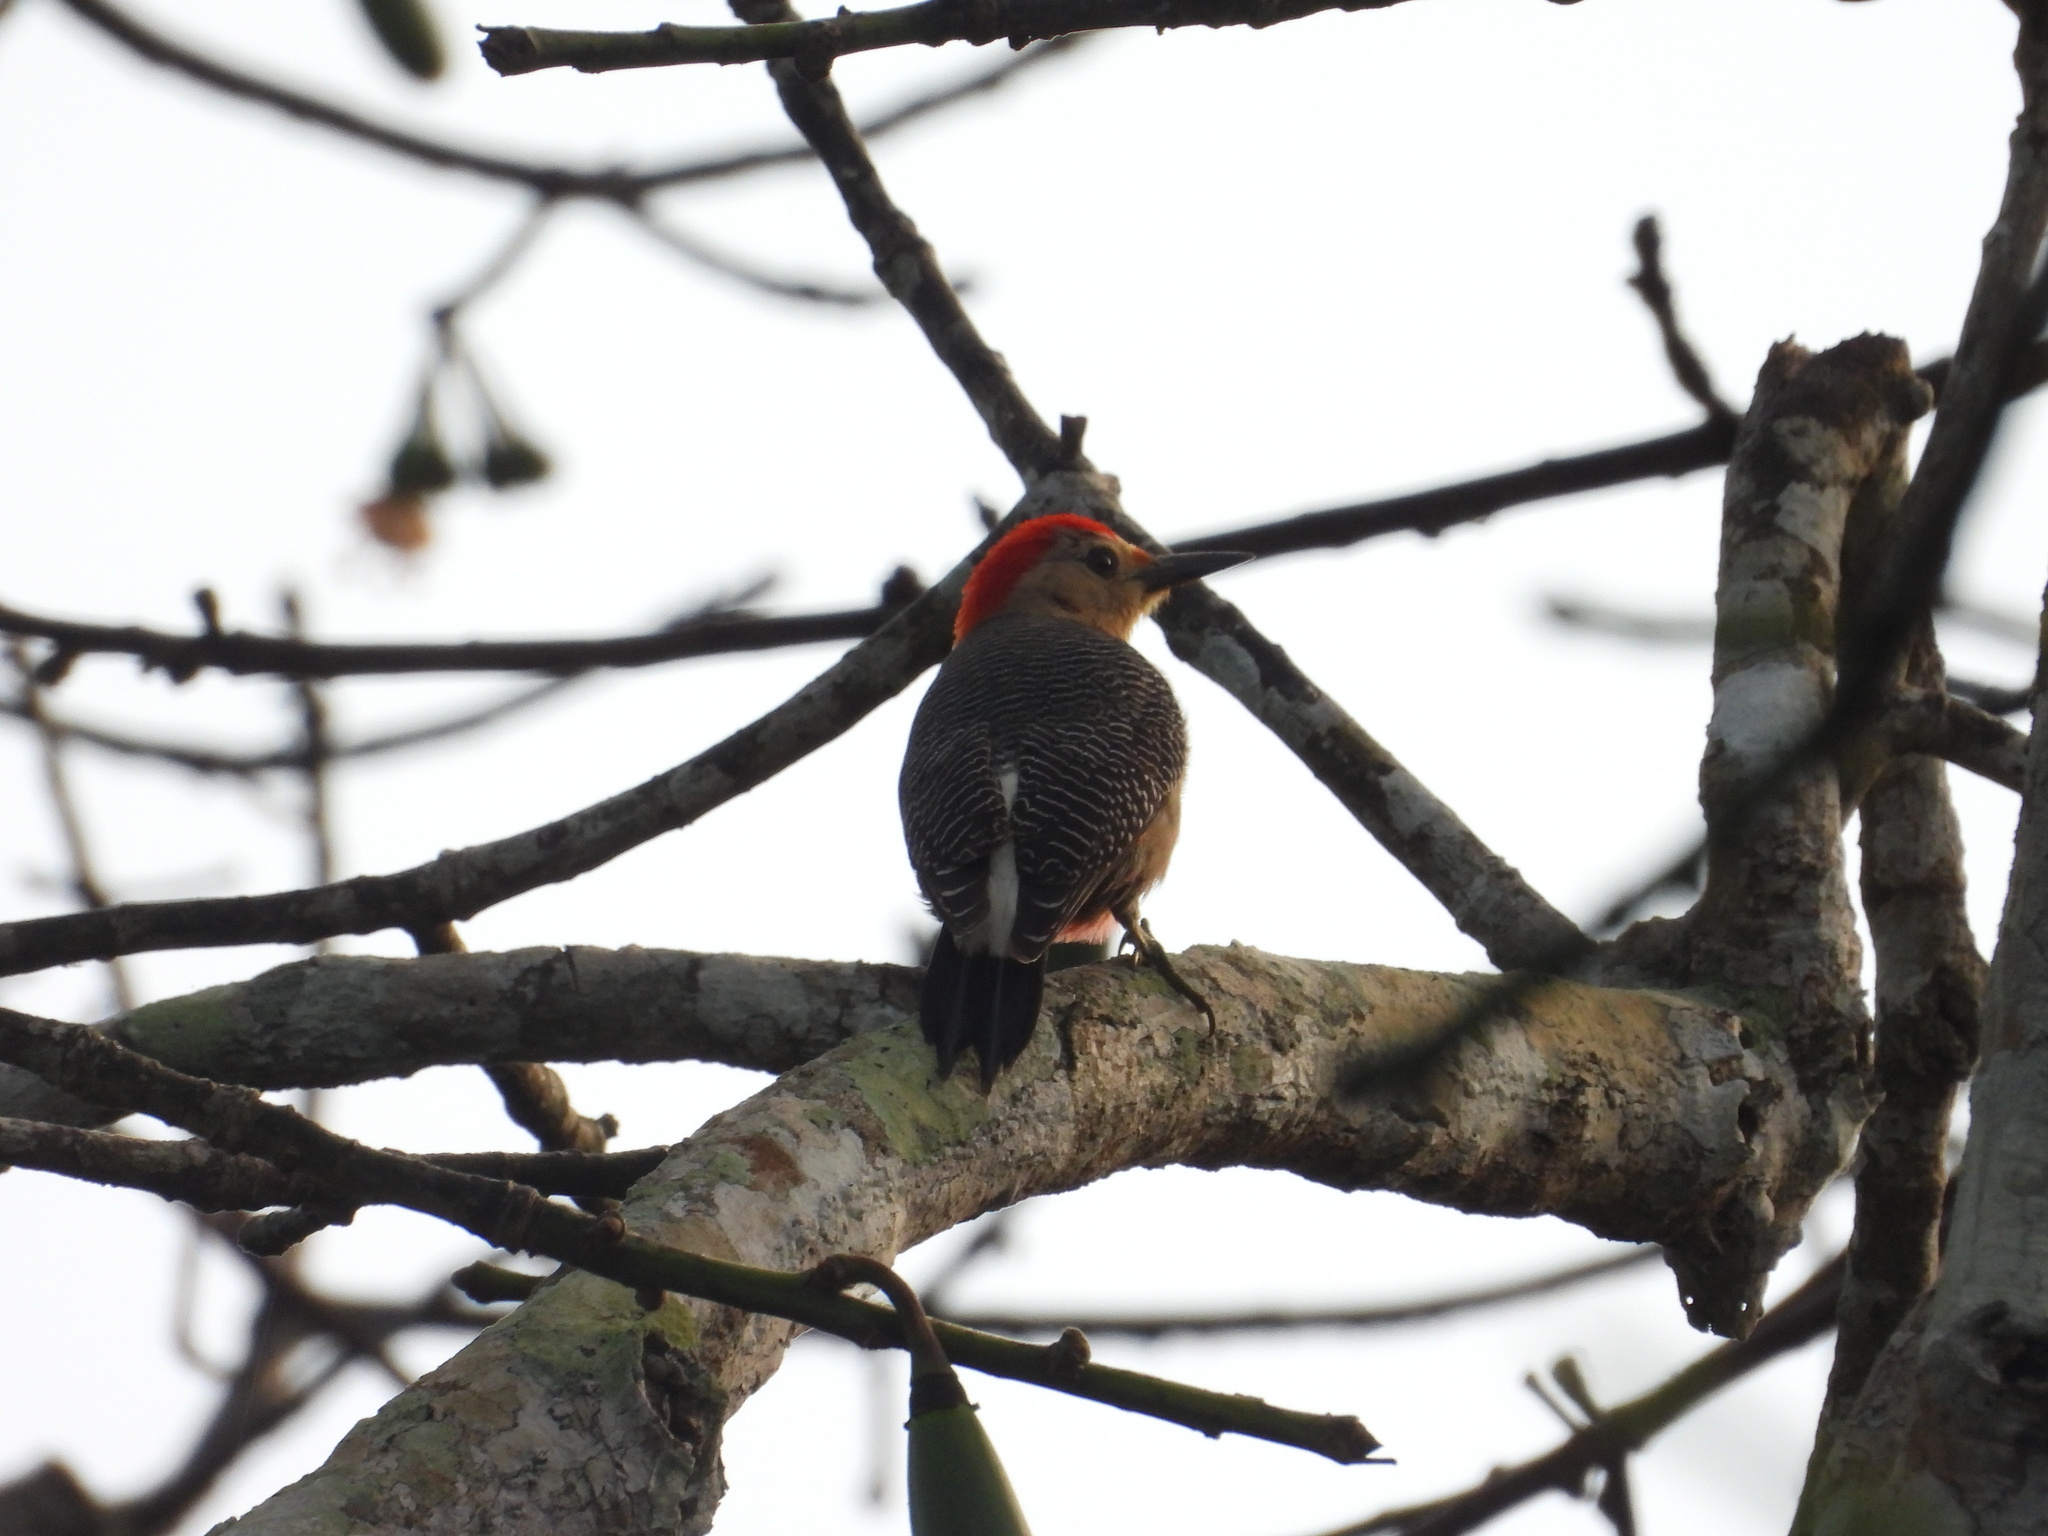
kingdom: Animalia
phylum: Chordata
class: Aves
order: Piciformes
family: Picidae
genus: Melanerpes
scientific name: Melanerpes aurifrons
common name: Golden-fronted woodpecker
